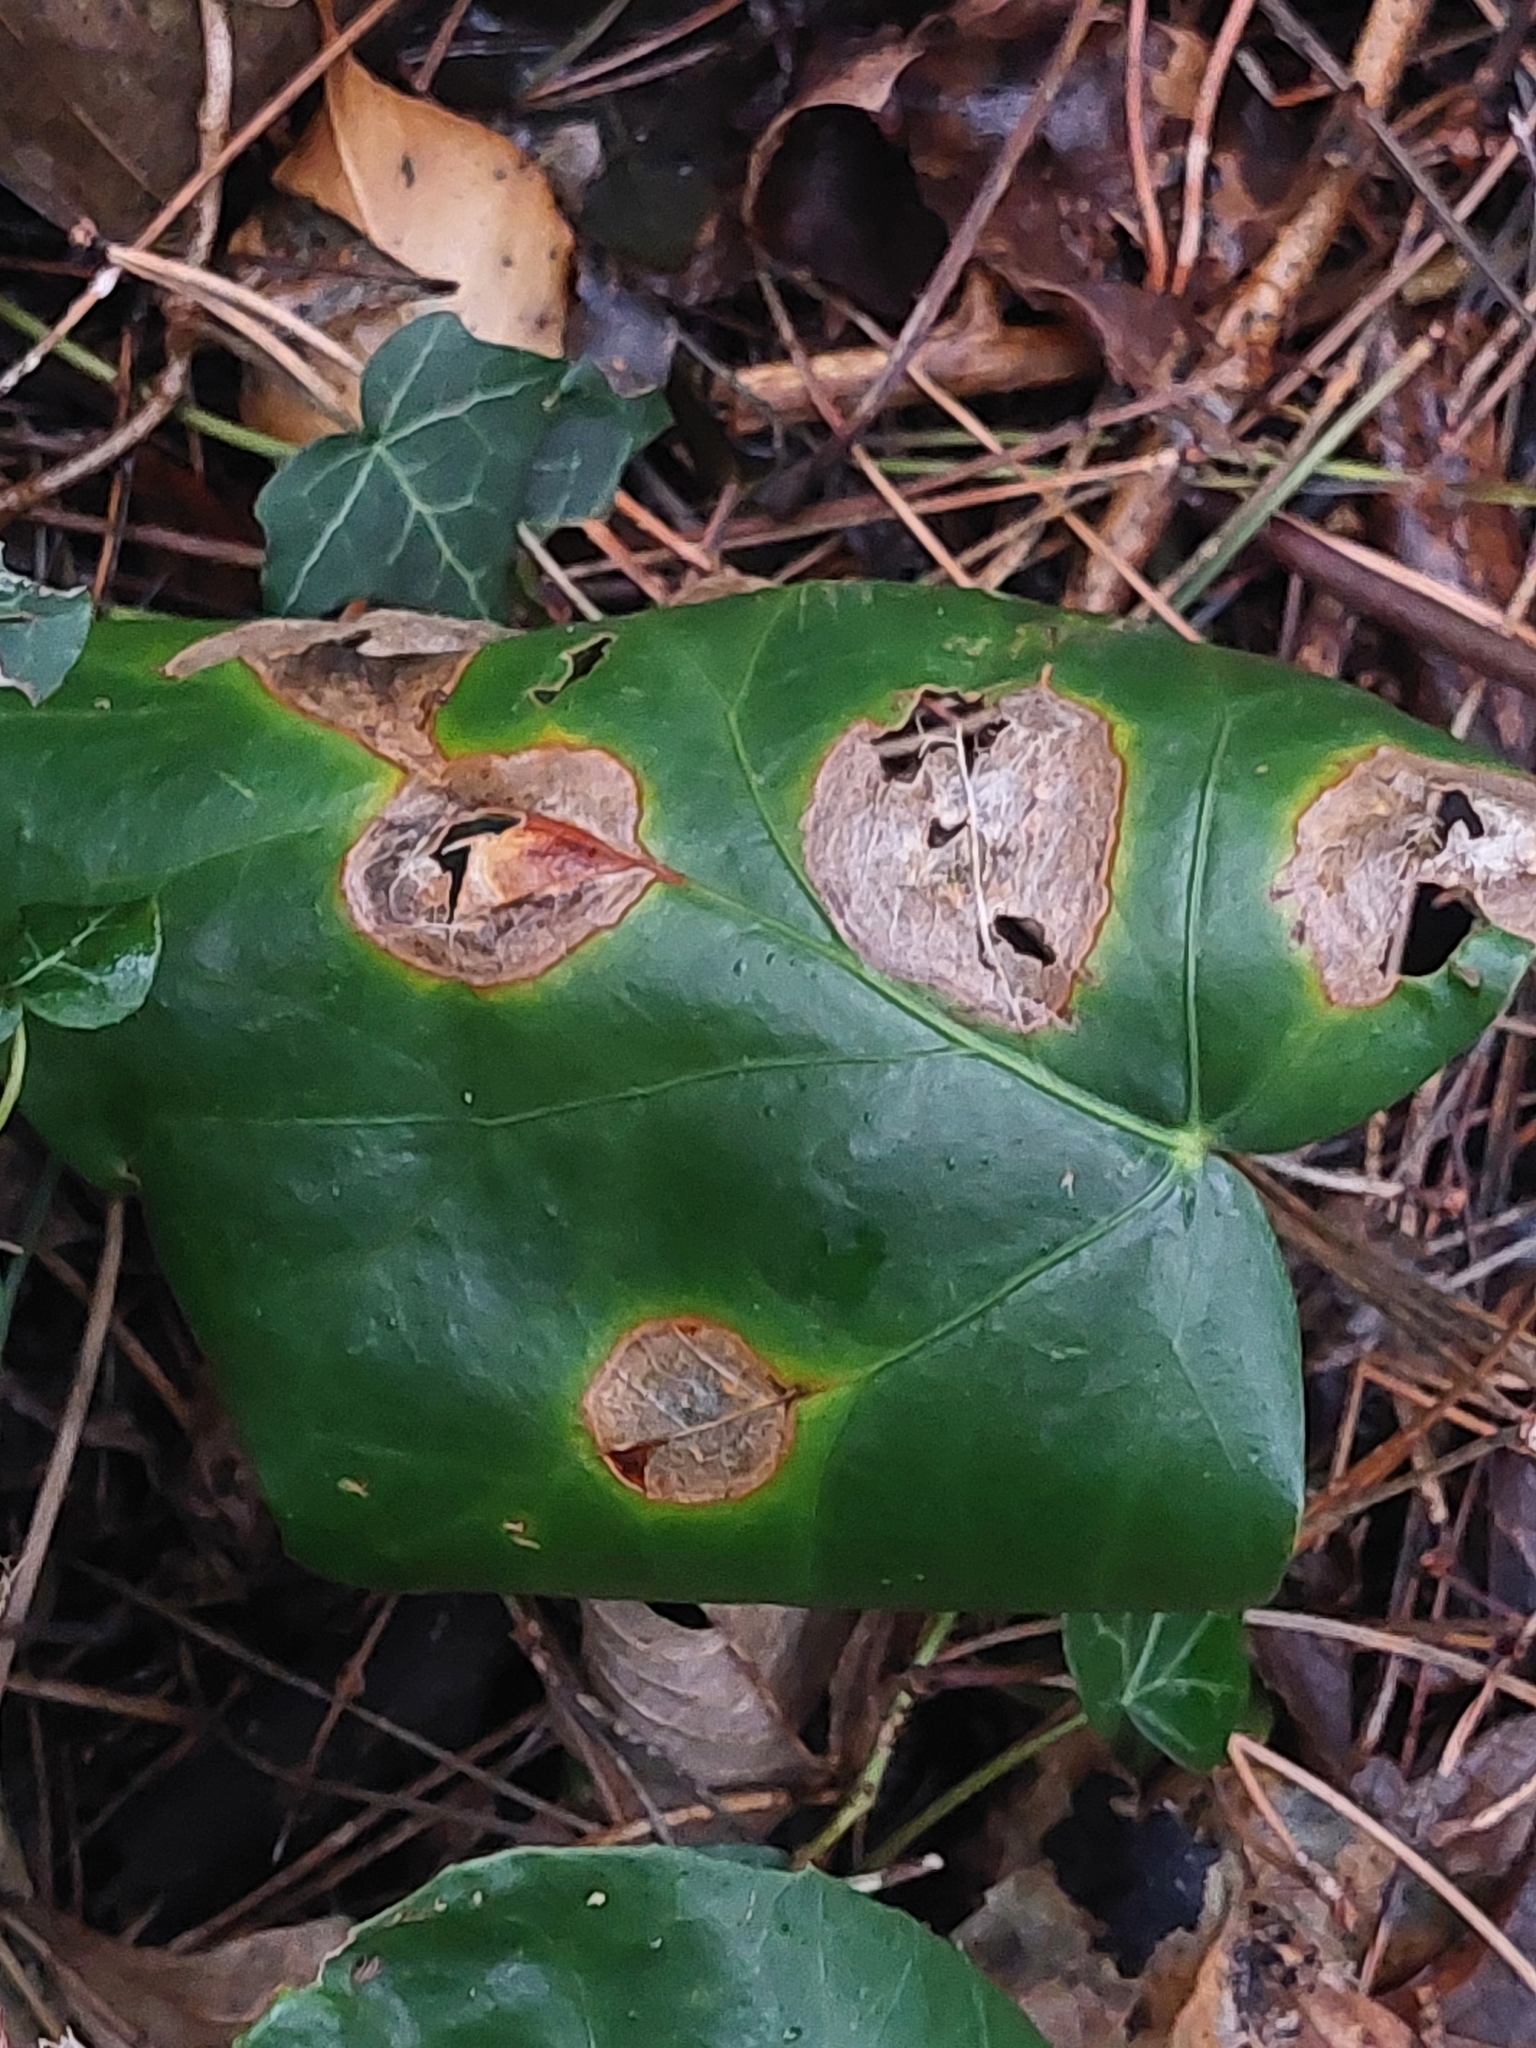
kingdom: Fungi
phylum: Ascomycota
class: Dothideomycetes
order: Pleosporales
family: Didymellaceae
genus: Boeremia
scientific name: Boeremia hedericola
